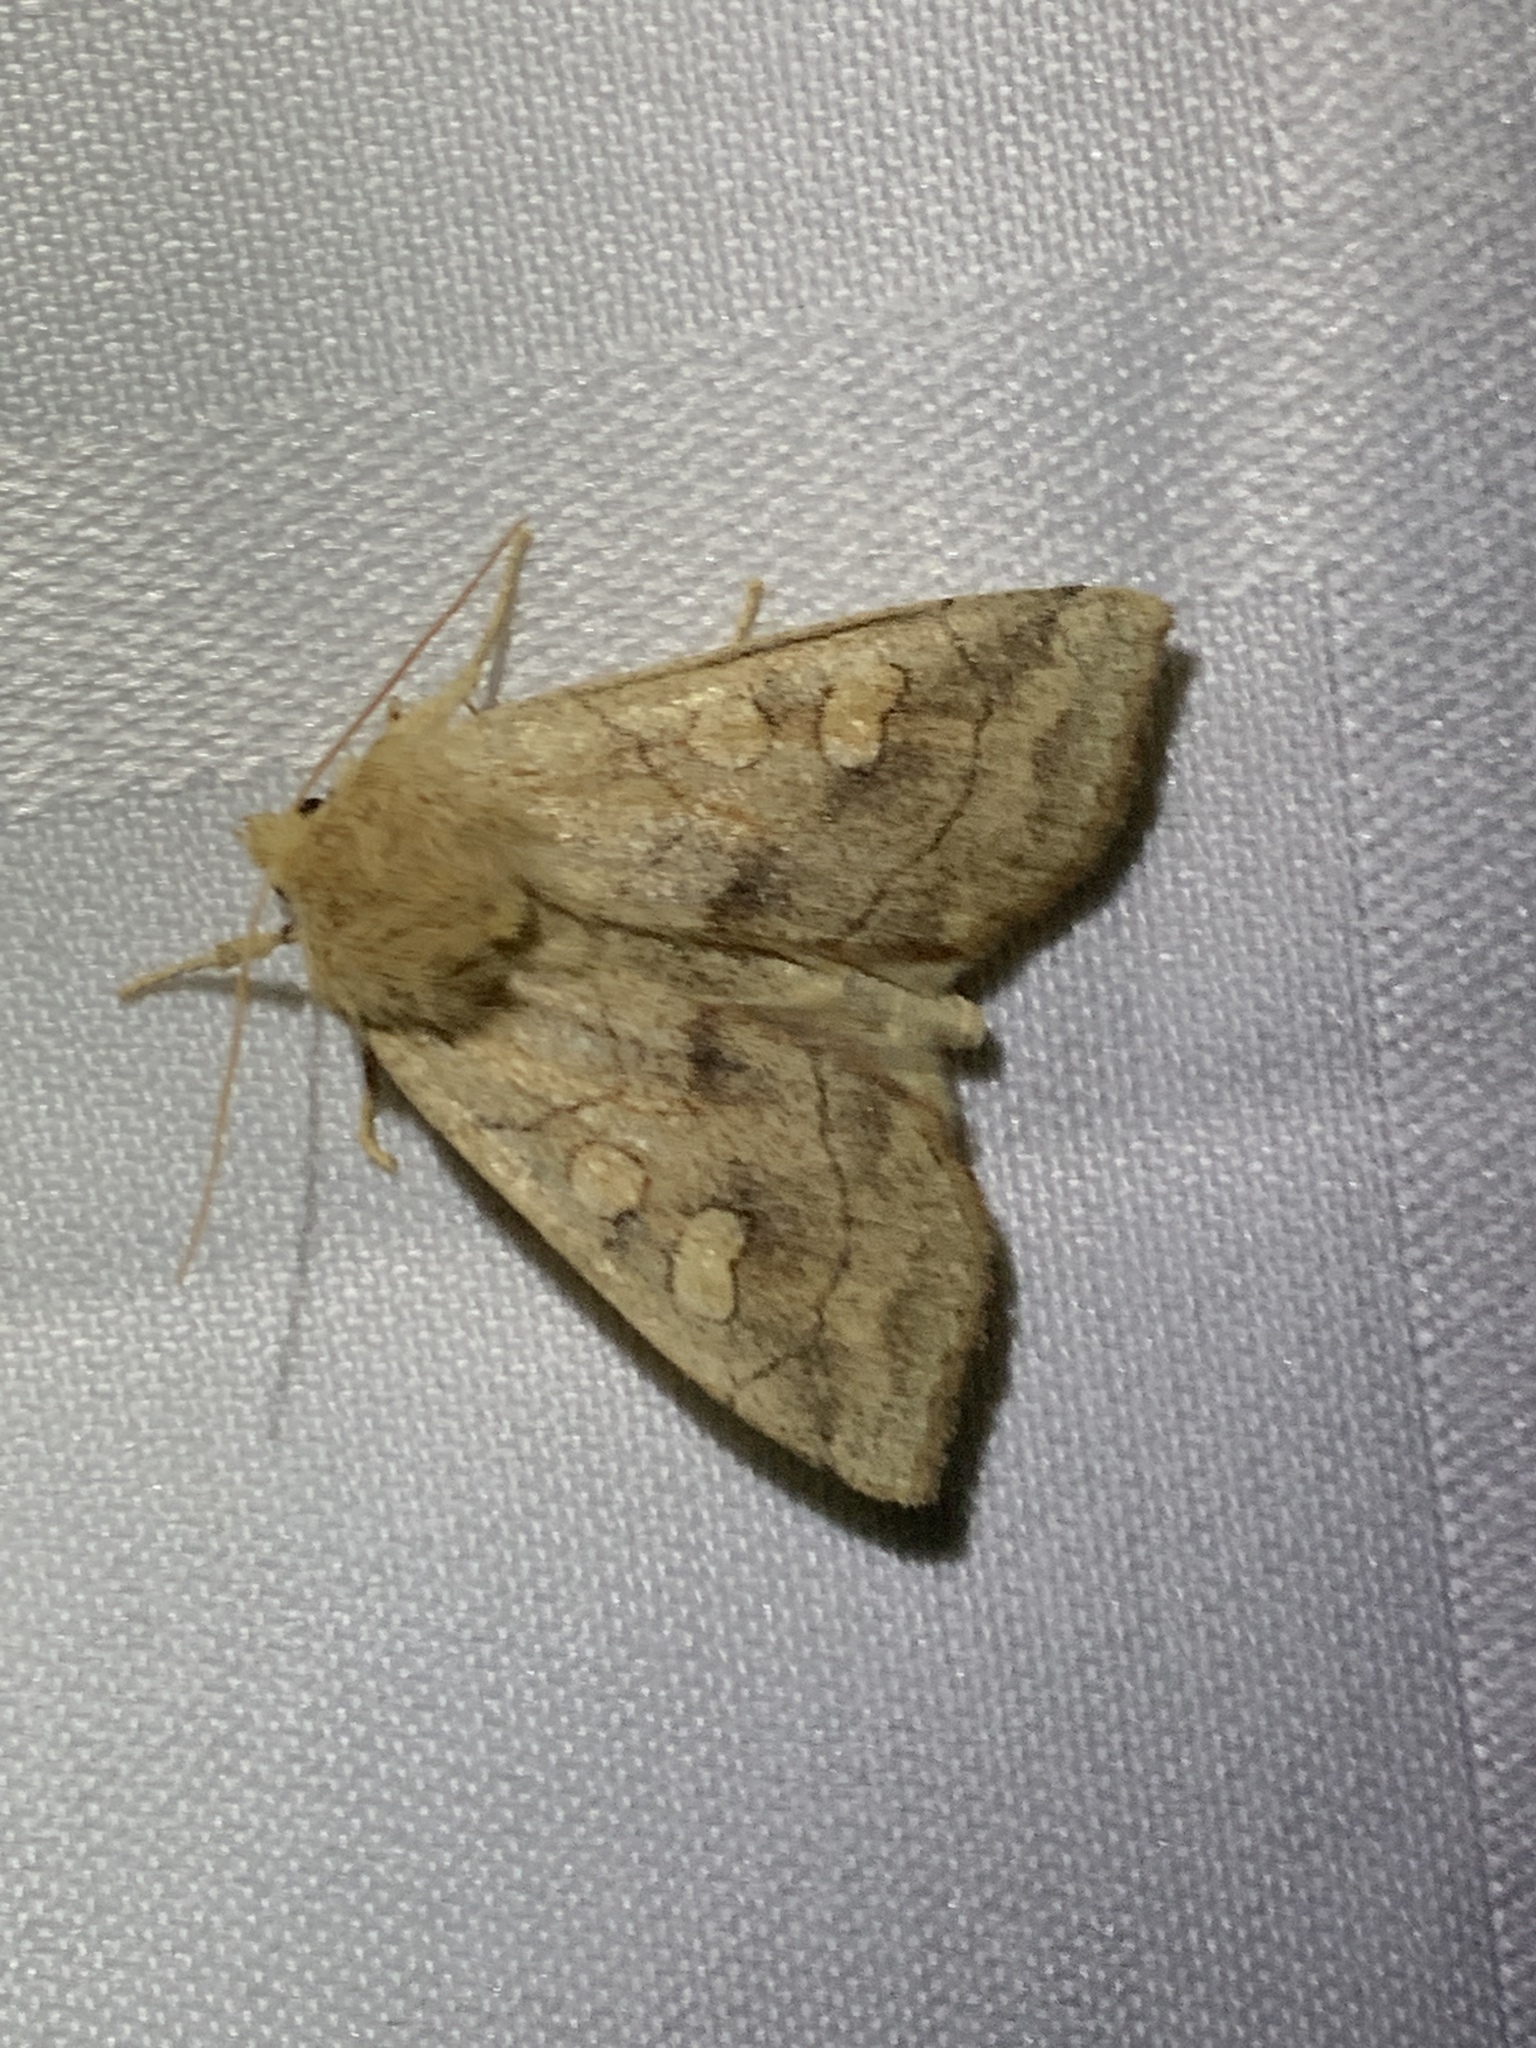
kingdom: Animalia
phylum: Arthropoda
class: Insecta
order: Lepidoptera
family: Noctuidae
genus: Enargia
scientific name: Enargia decolor
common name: Aspen twoleaf tier moth
